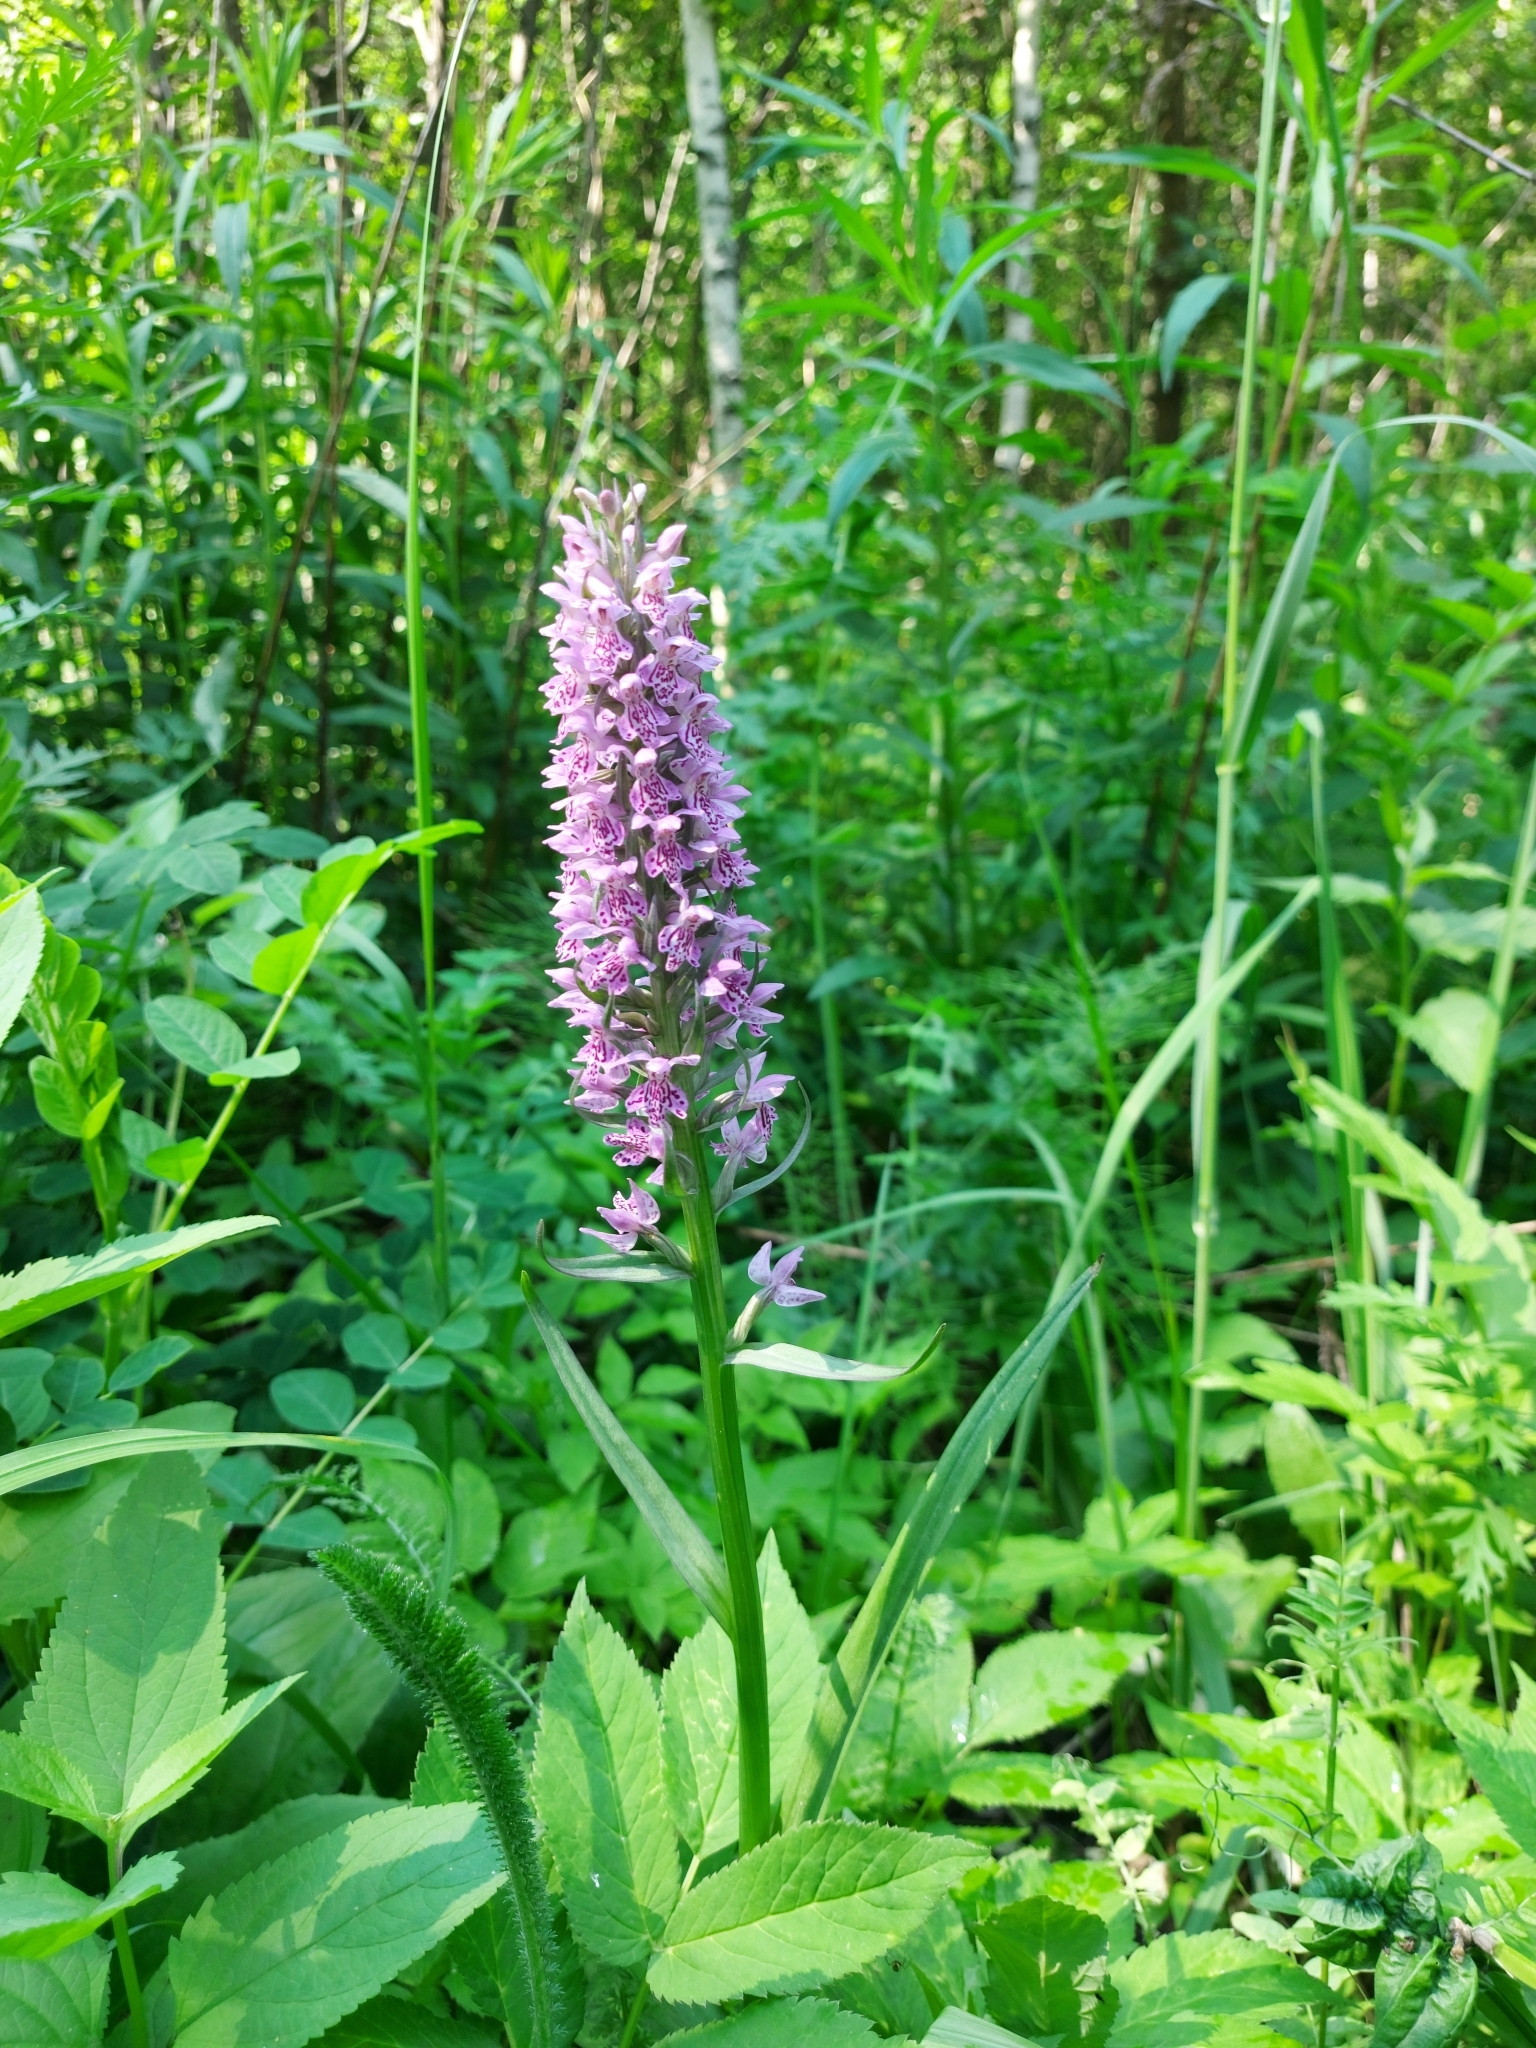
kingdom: Plantae
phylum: Tracheophyta
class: Liliopsida
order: Asparagales
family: Orchidaceae
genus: Dactylorhiza
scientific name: Dactylorhiza sibirica
